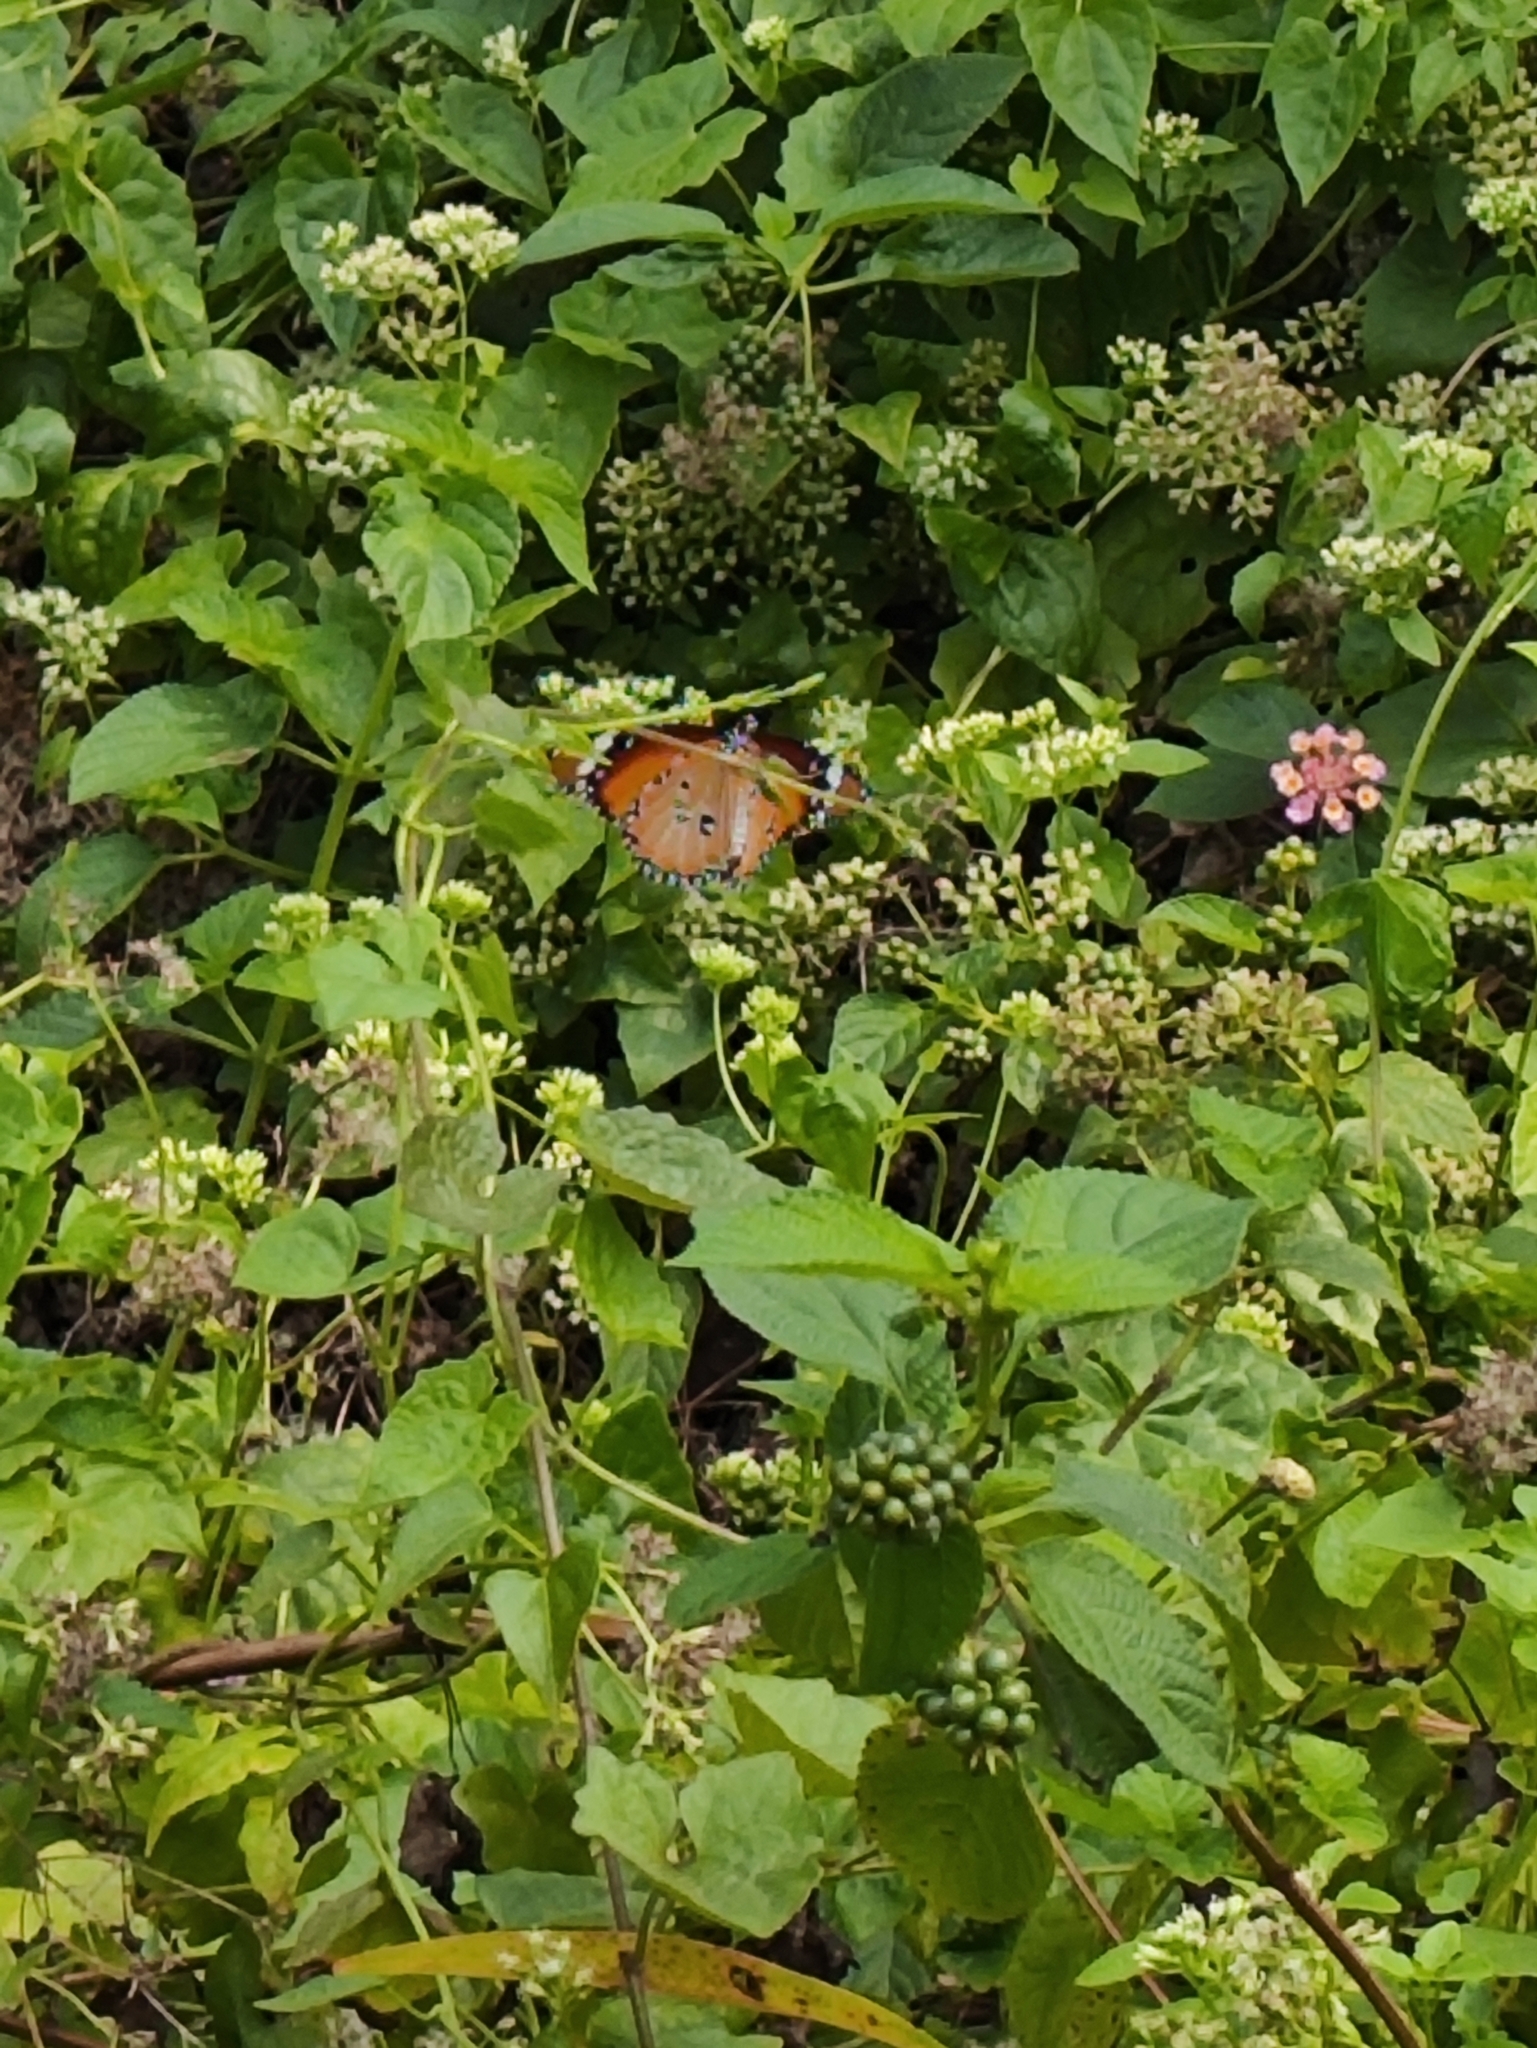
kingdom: Animalia
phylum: Arthropoda
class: Insecta
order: Lepidoptera
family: Nymphalidae
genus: Danaus
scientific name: Danaus chrysippus
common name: Plain tiger
